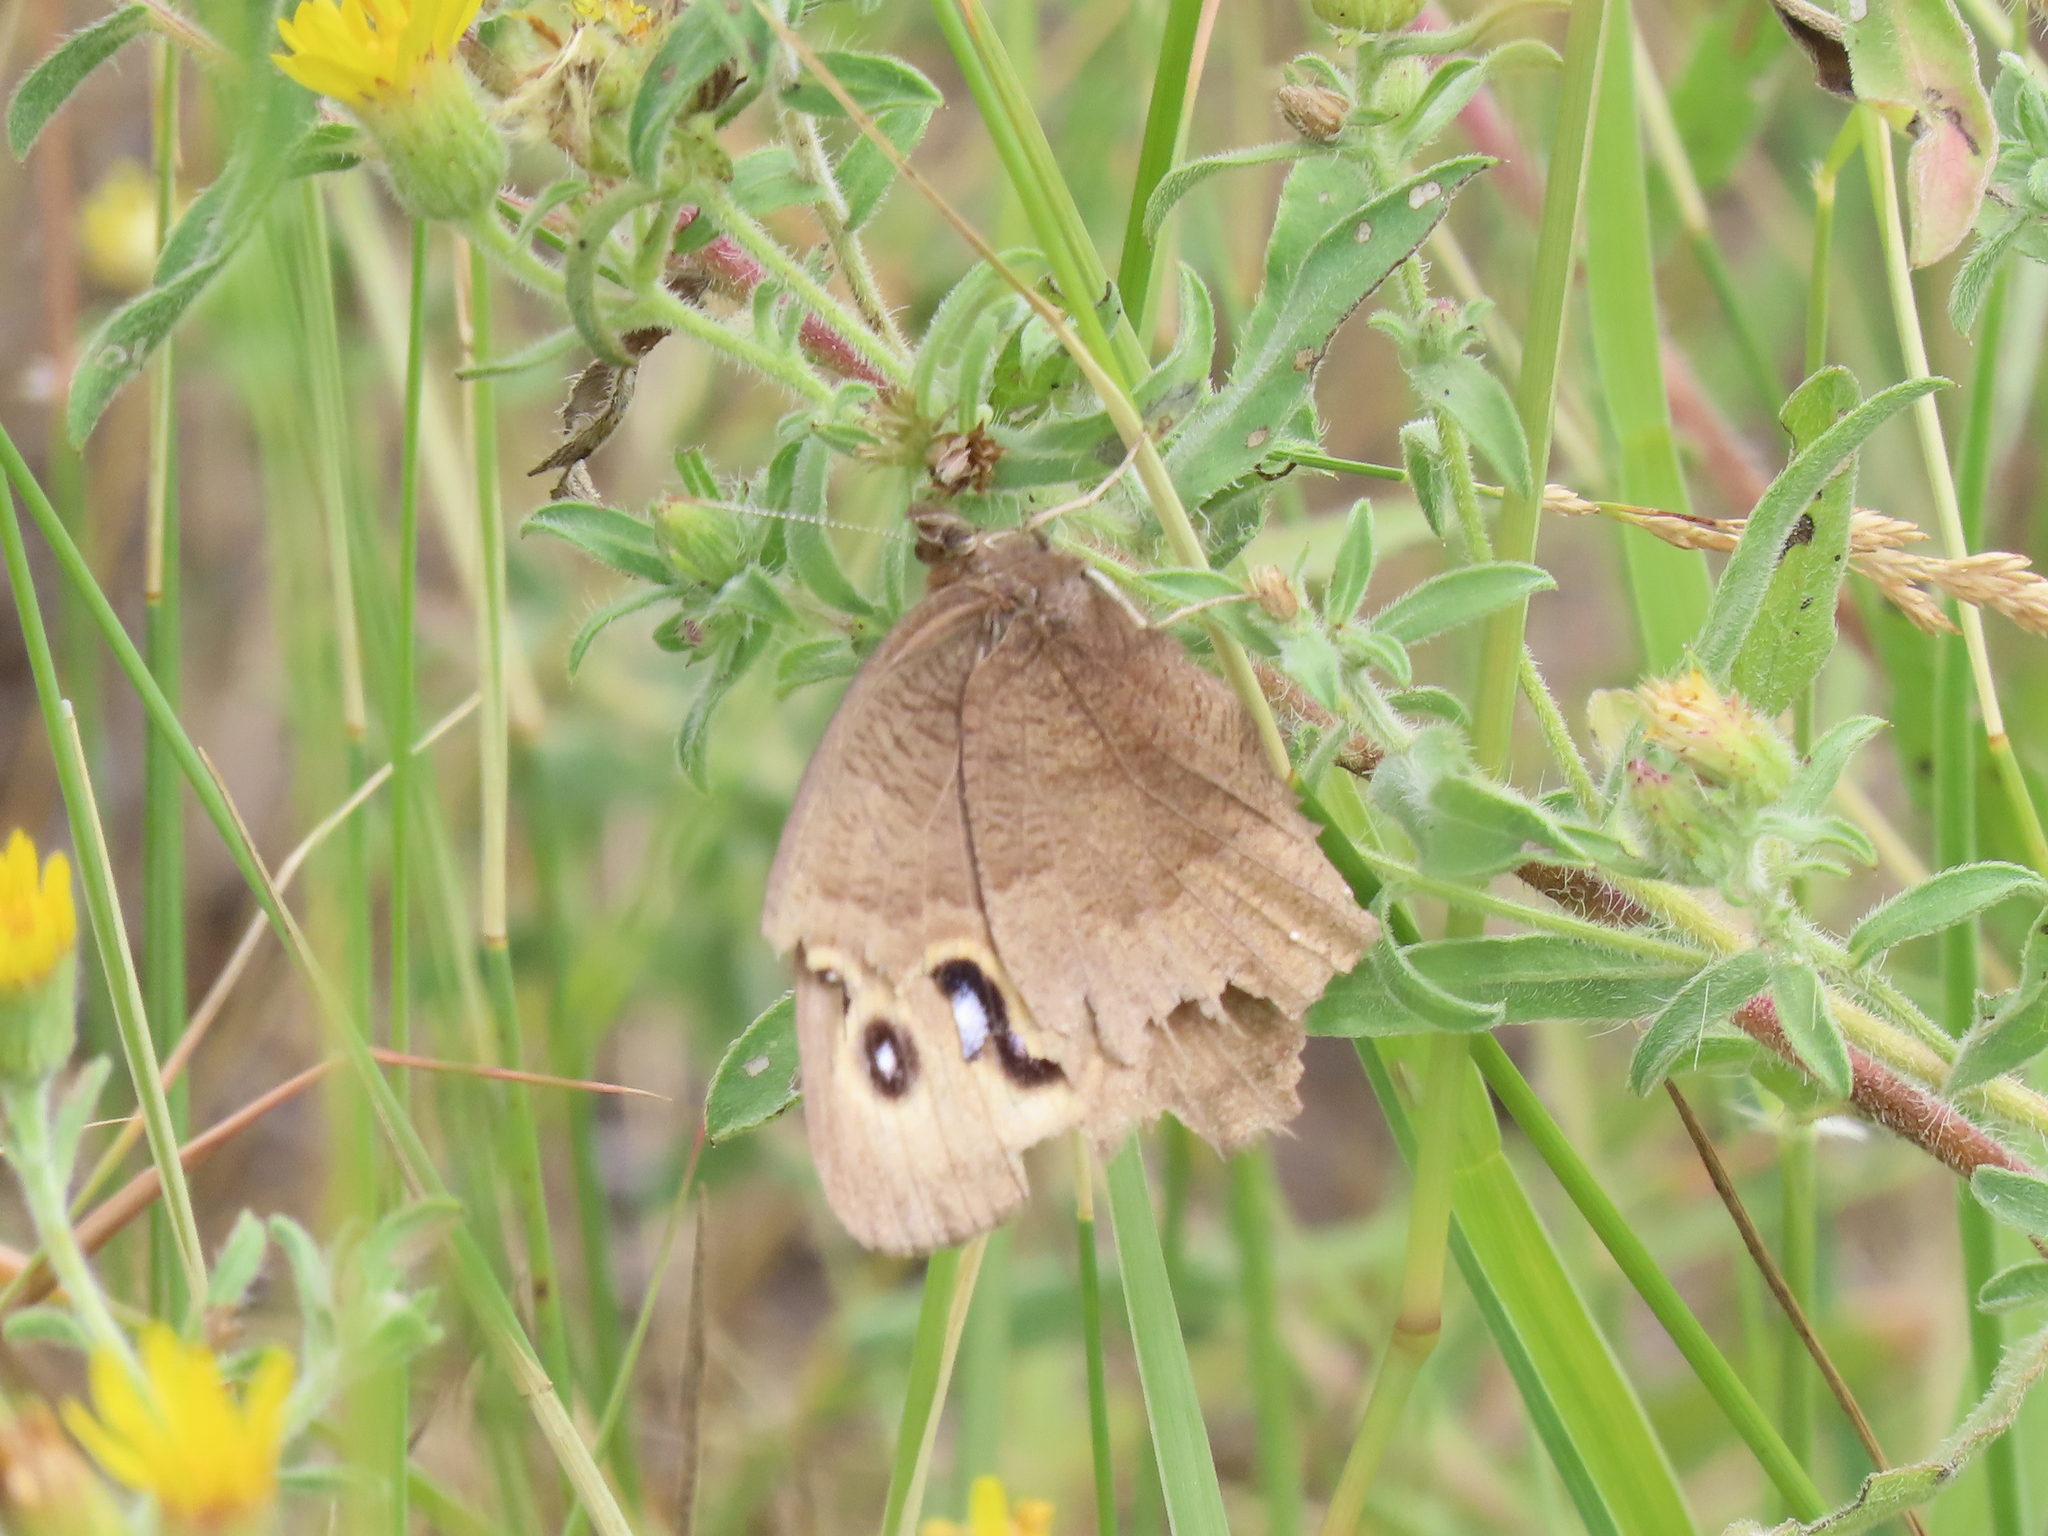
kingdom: Animalia
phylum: Arthropoda
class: Insecta
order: Lepidoptera
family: Nymphalidae
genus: Cercyonis
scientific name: Cercyonis pegala
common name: Common wood-nymph
